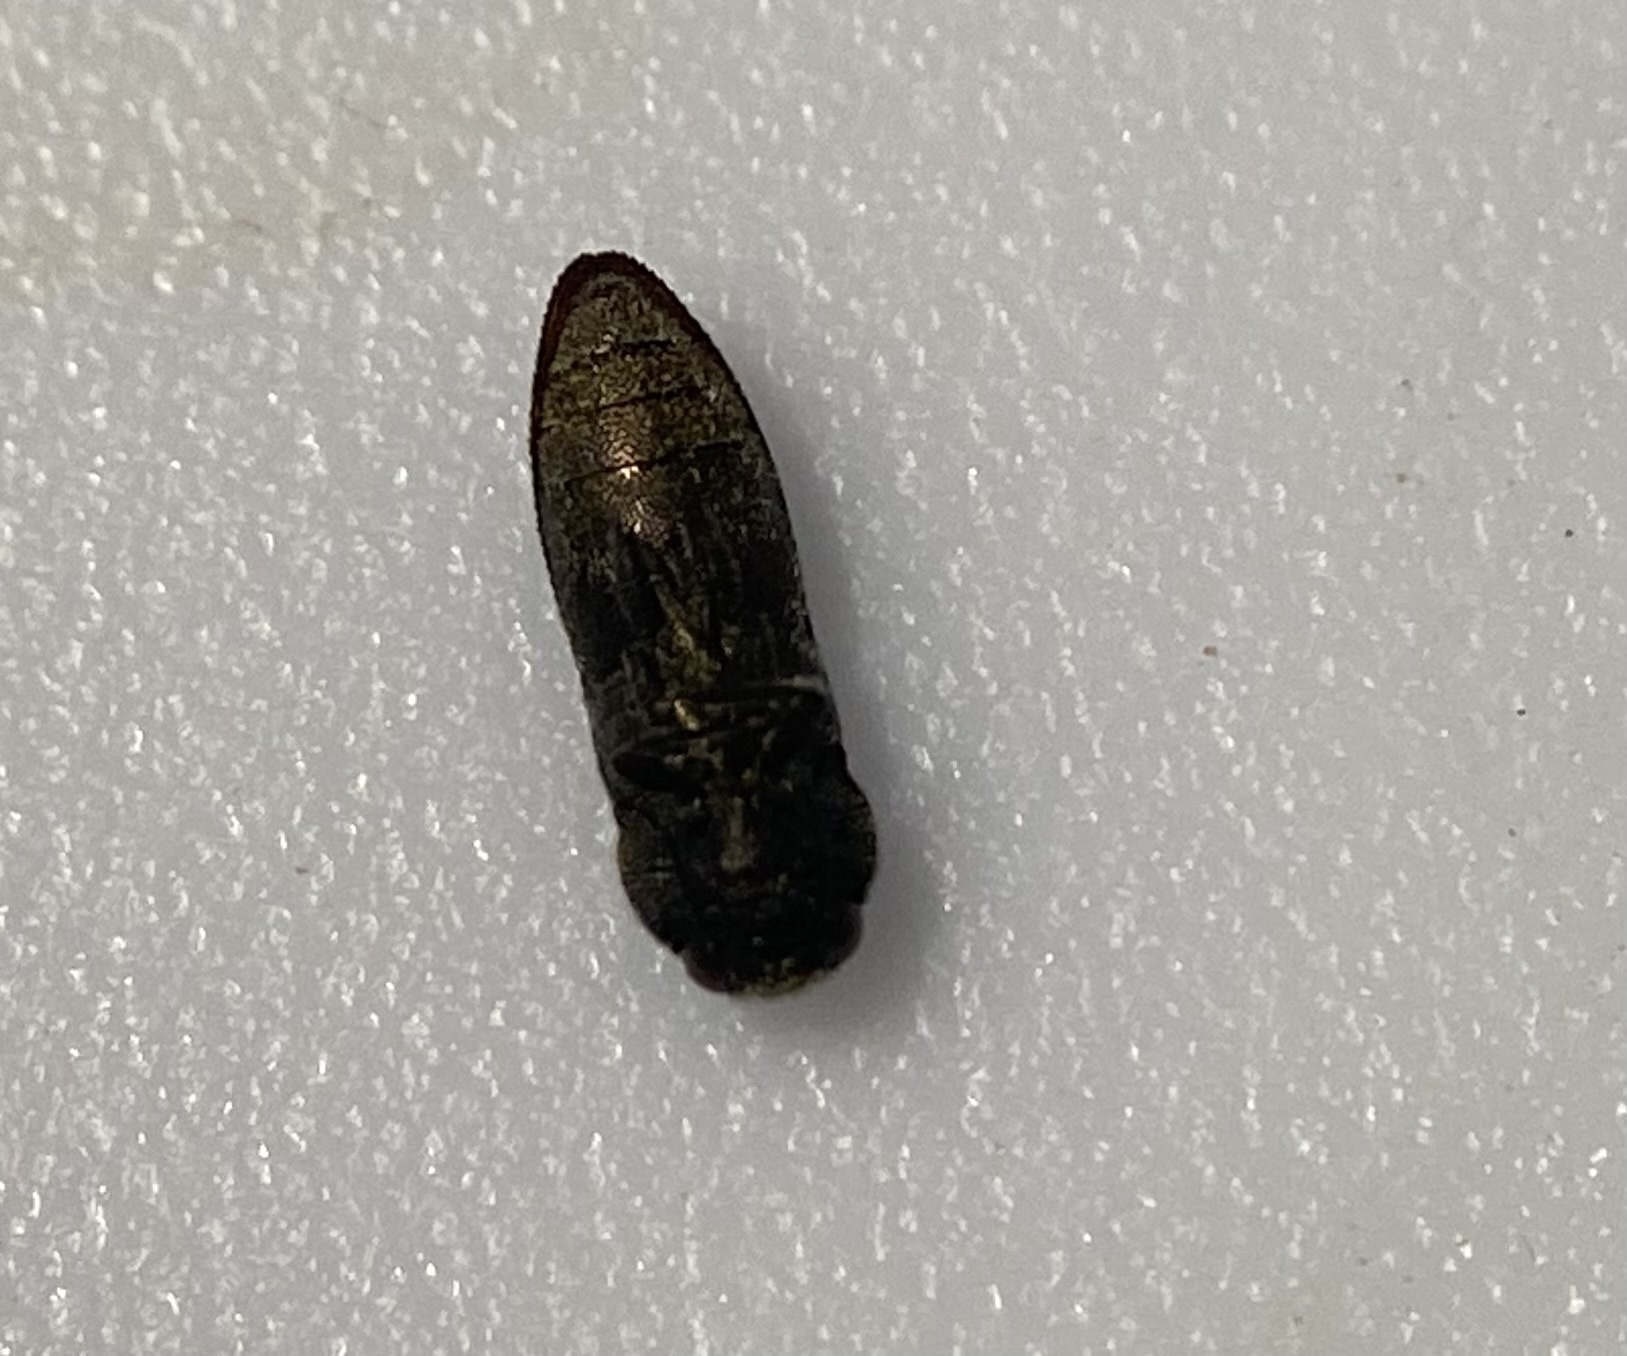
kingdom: Animalia
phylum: Arthropoda
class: Insecta
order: Coleoptera
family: Buprestidae
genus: Acmaeodera
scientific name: Acmaeodera ligulata
